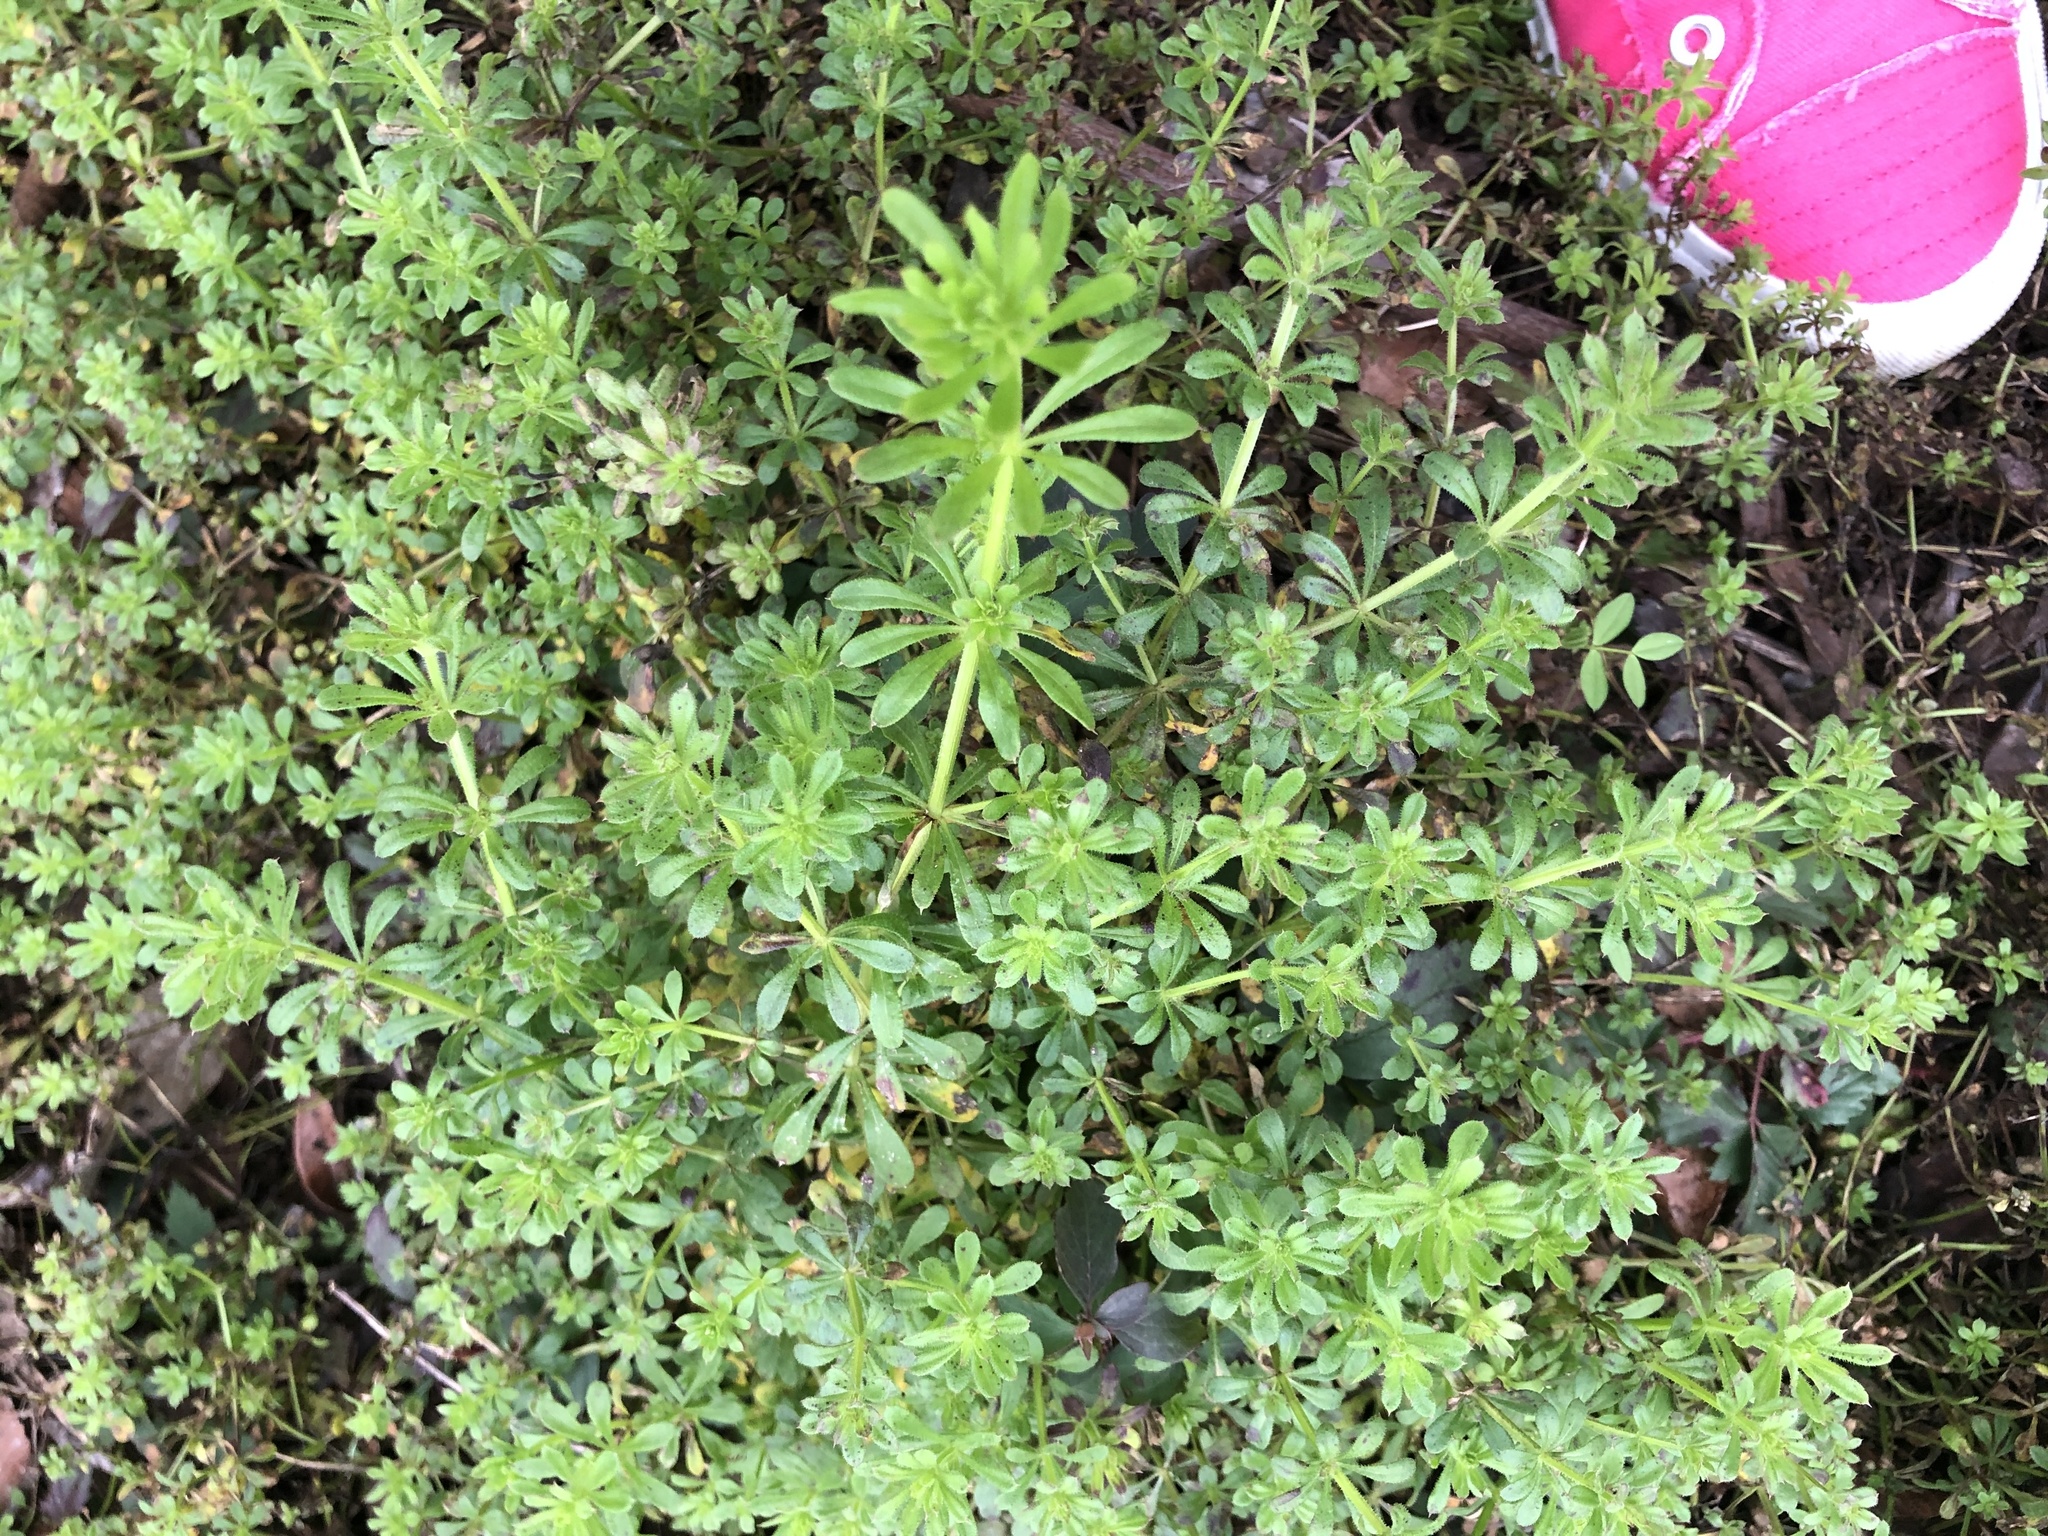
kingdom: Plantae
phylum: Tracheophyta
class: Magnoliopsida
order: Gentianales
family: Rubiaceae
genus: Galium
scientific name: Galium aparine
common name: Cleavers
